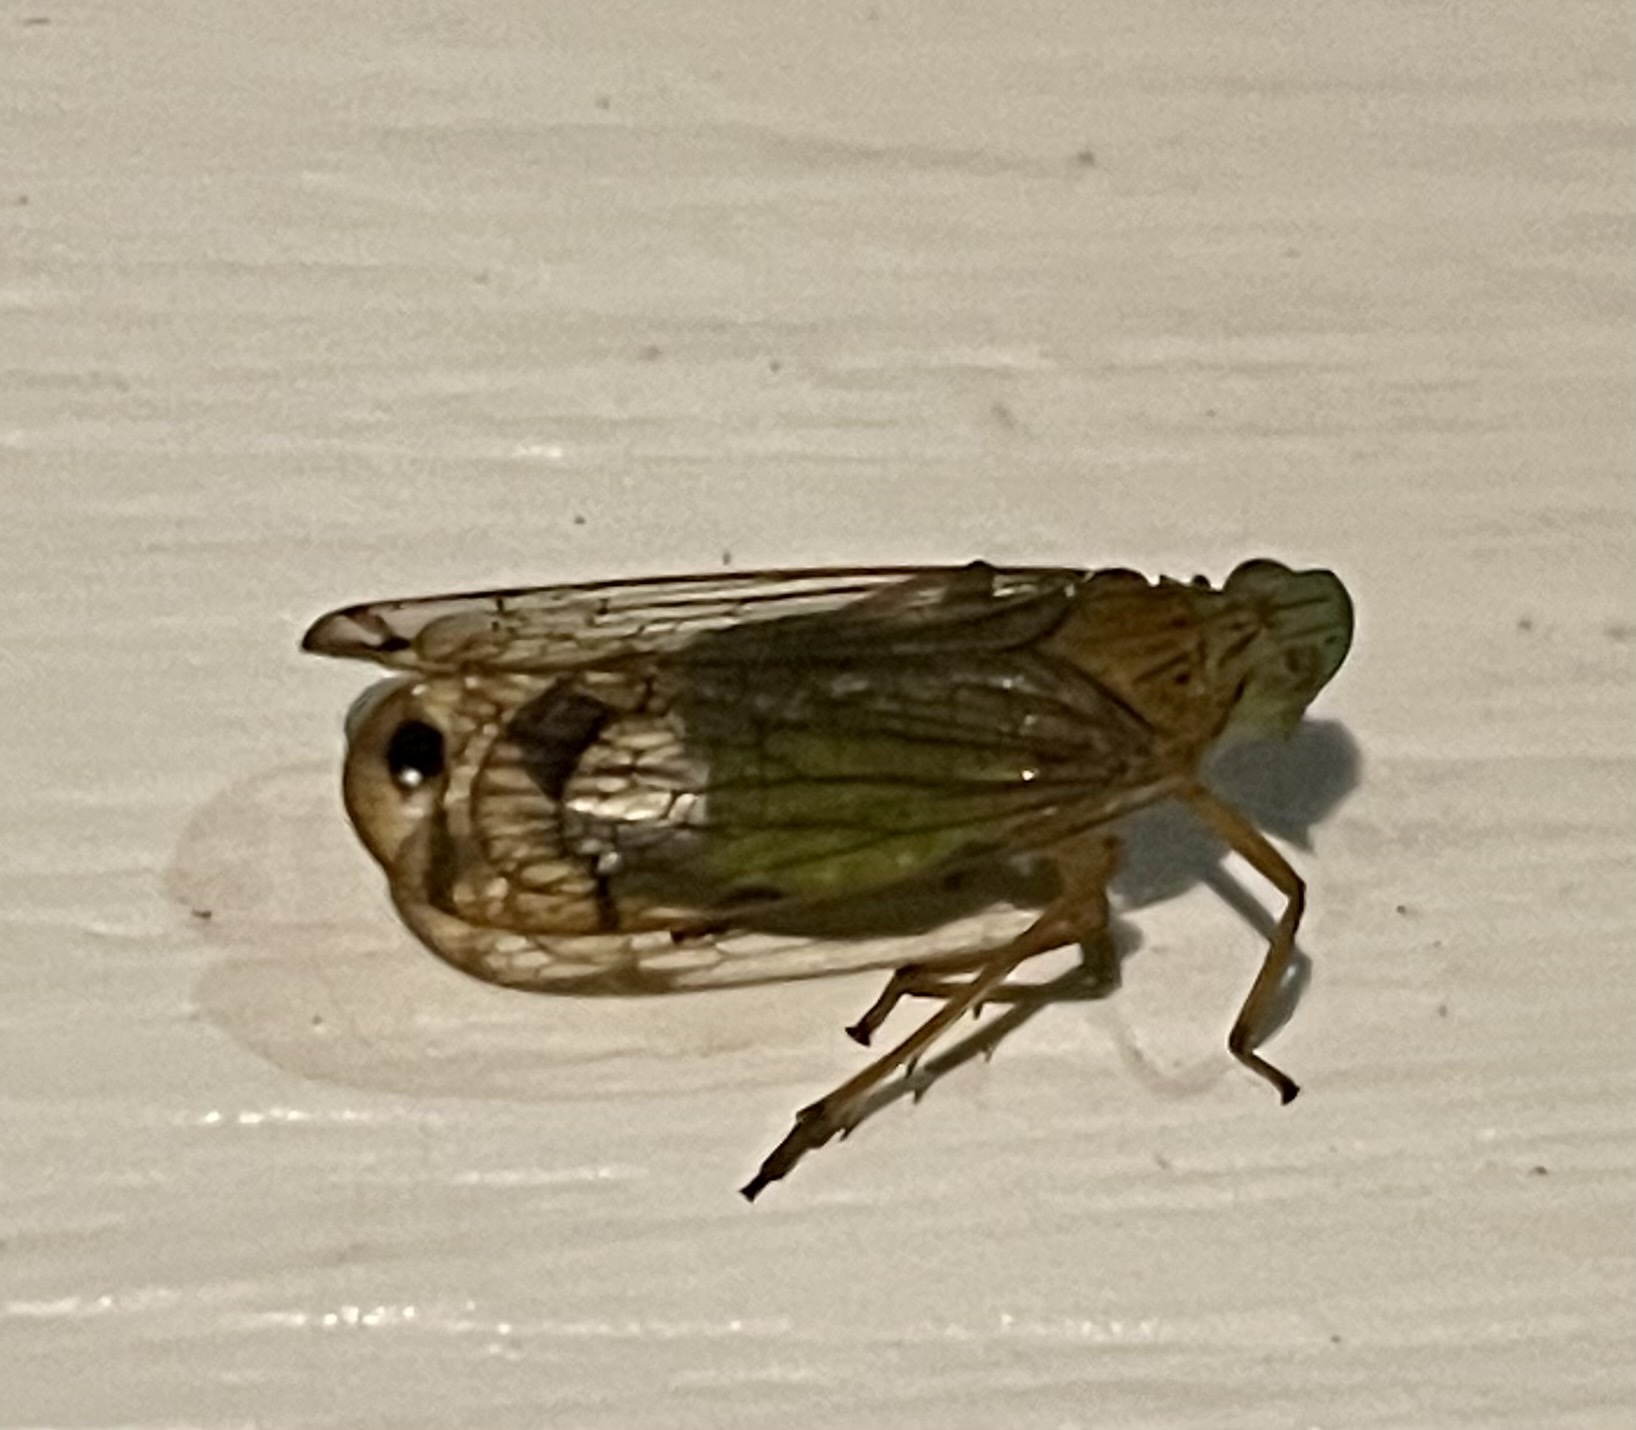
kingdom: Animalia
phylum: Arthropoda
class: Insecta
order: Hemiptera
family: Lophopidae
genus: Magia
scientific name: Magia subocellata
